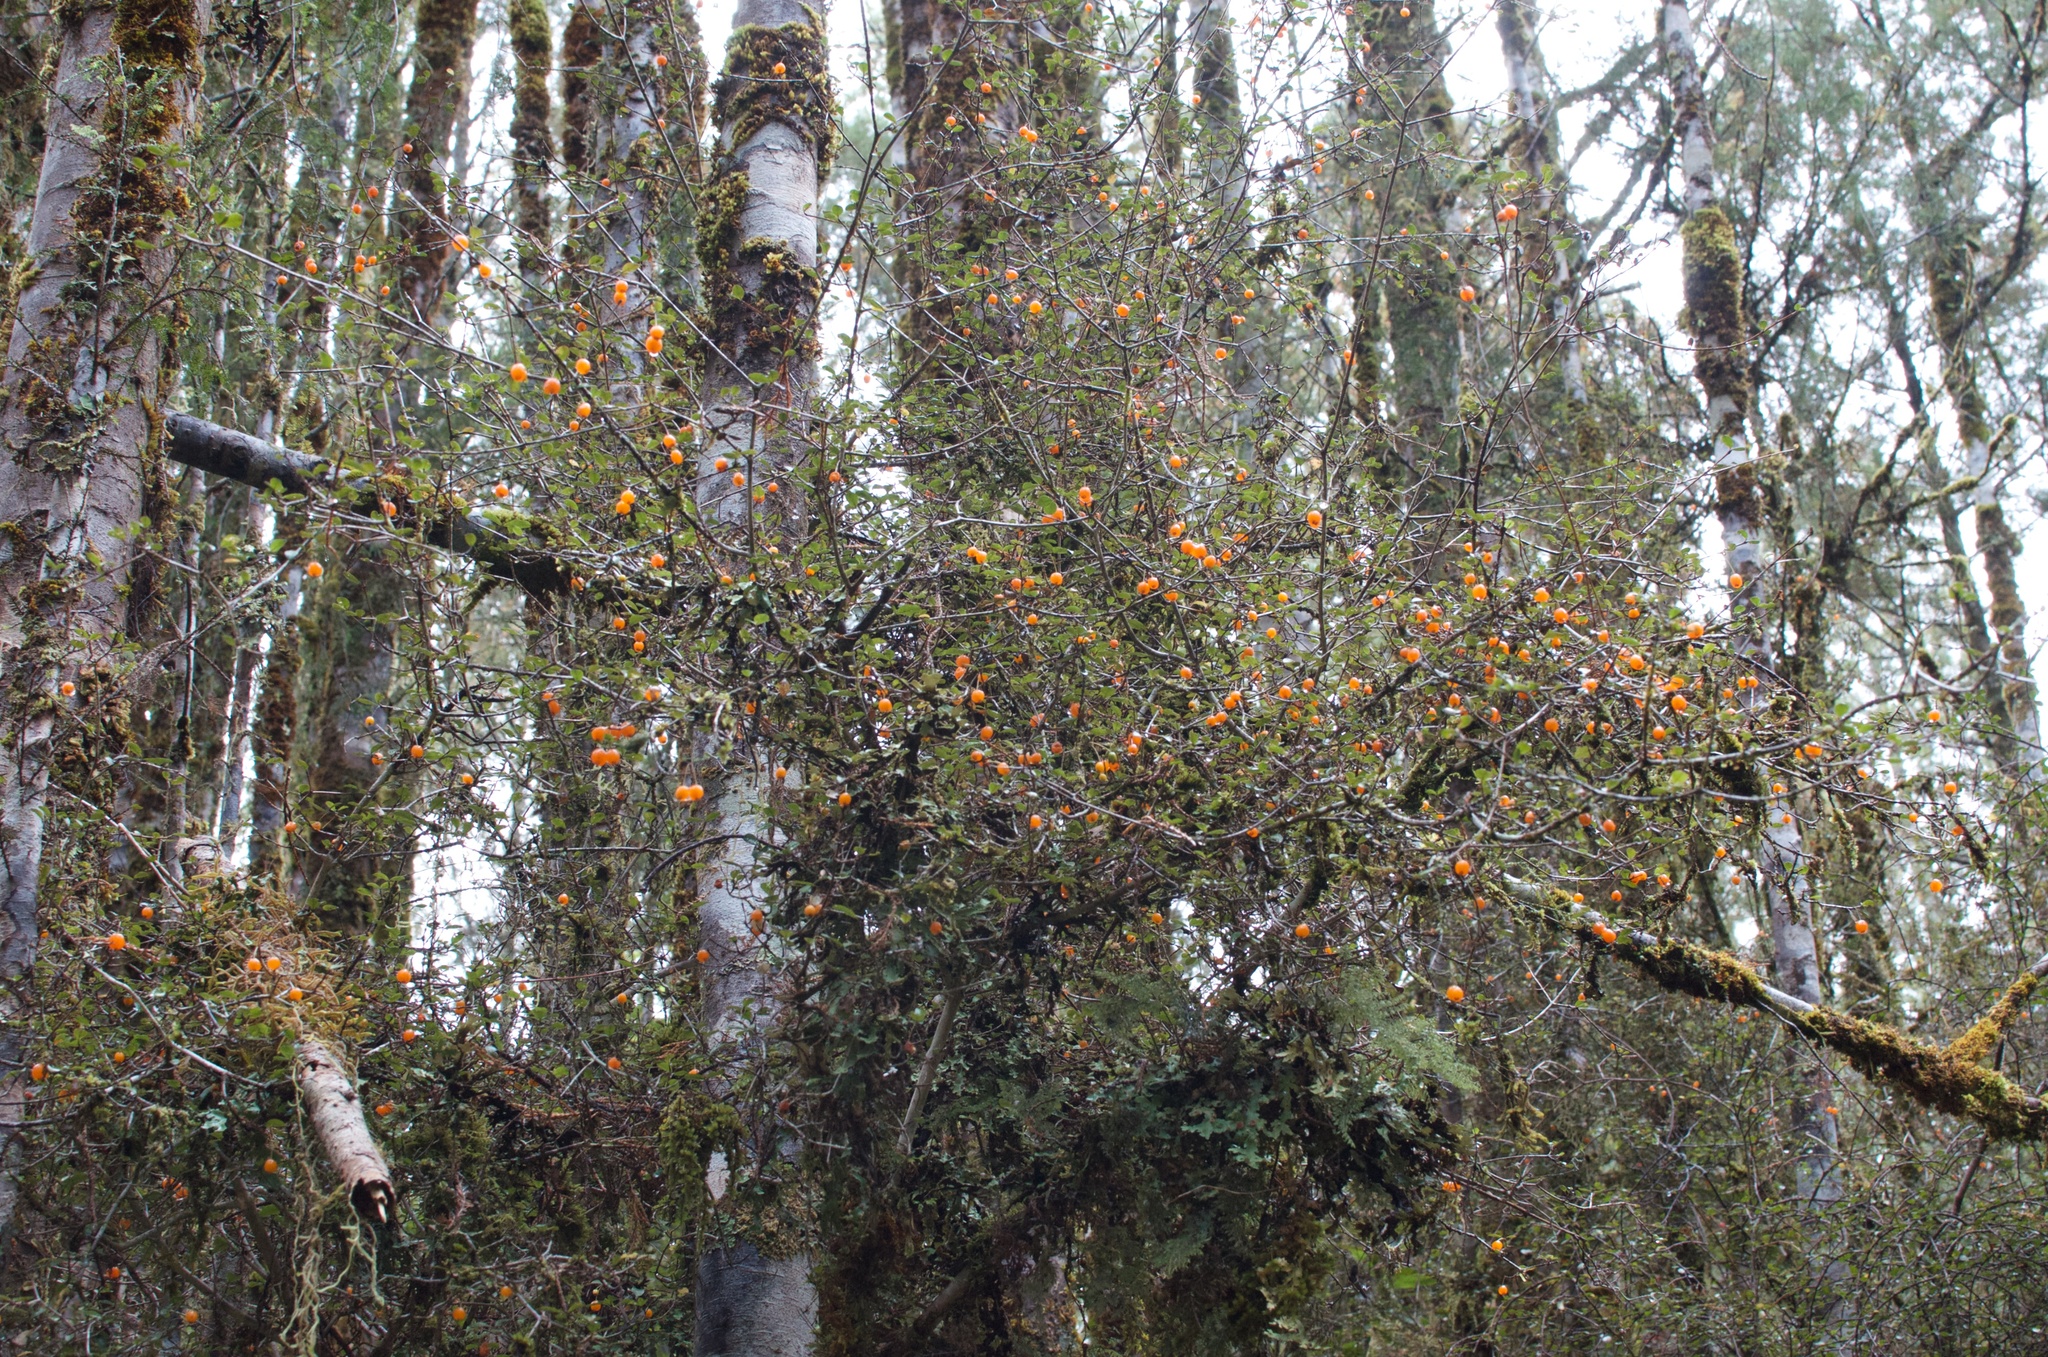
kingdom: Plantae
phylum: Tracheophyta
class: Magnoliopsida
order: Myrtales
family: Myrtaceae
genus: Neomyrtus
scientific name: Neomyrtus pedunculata
